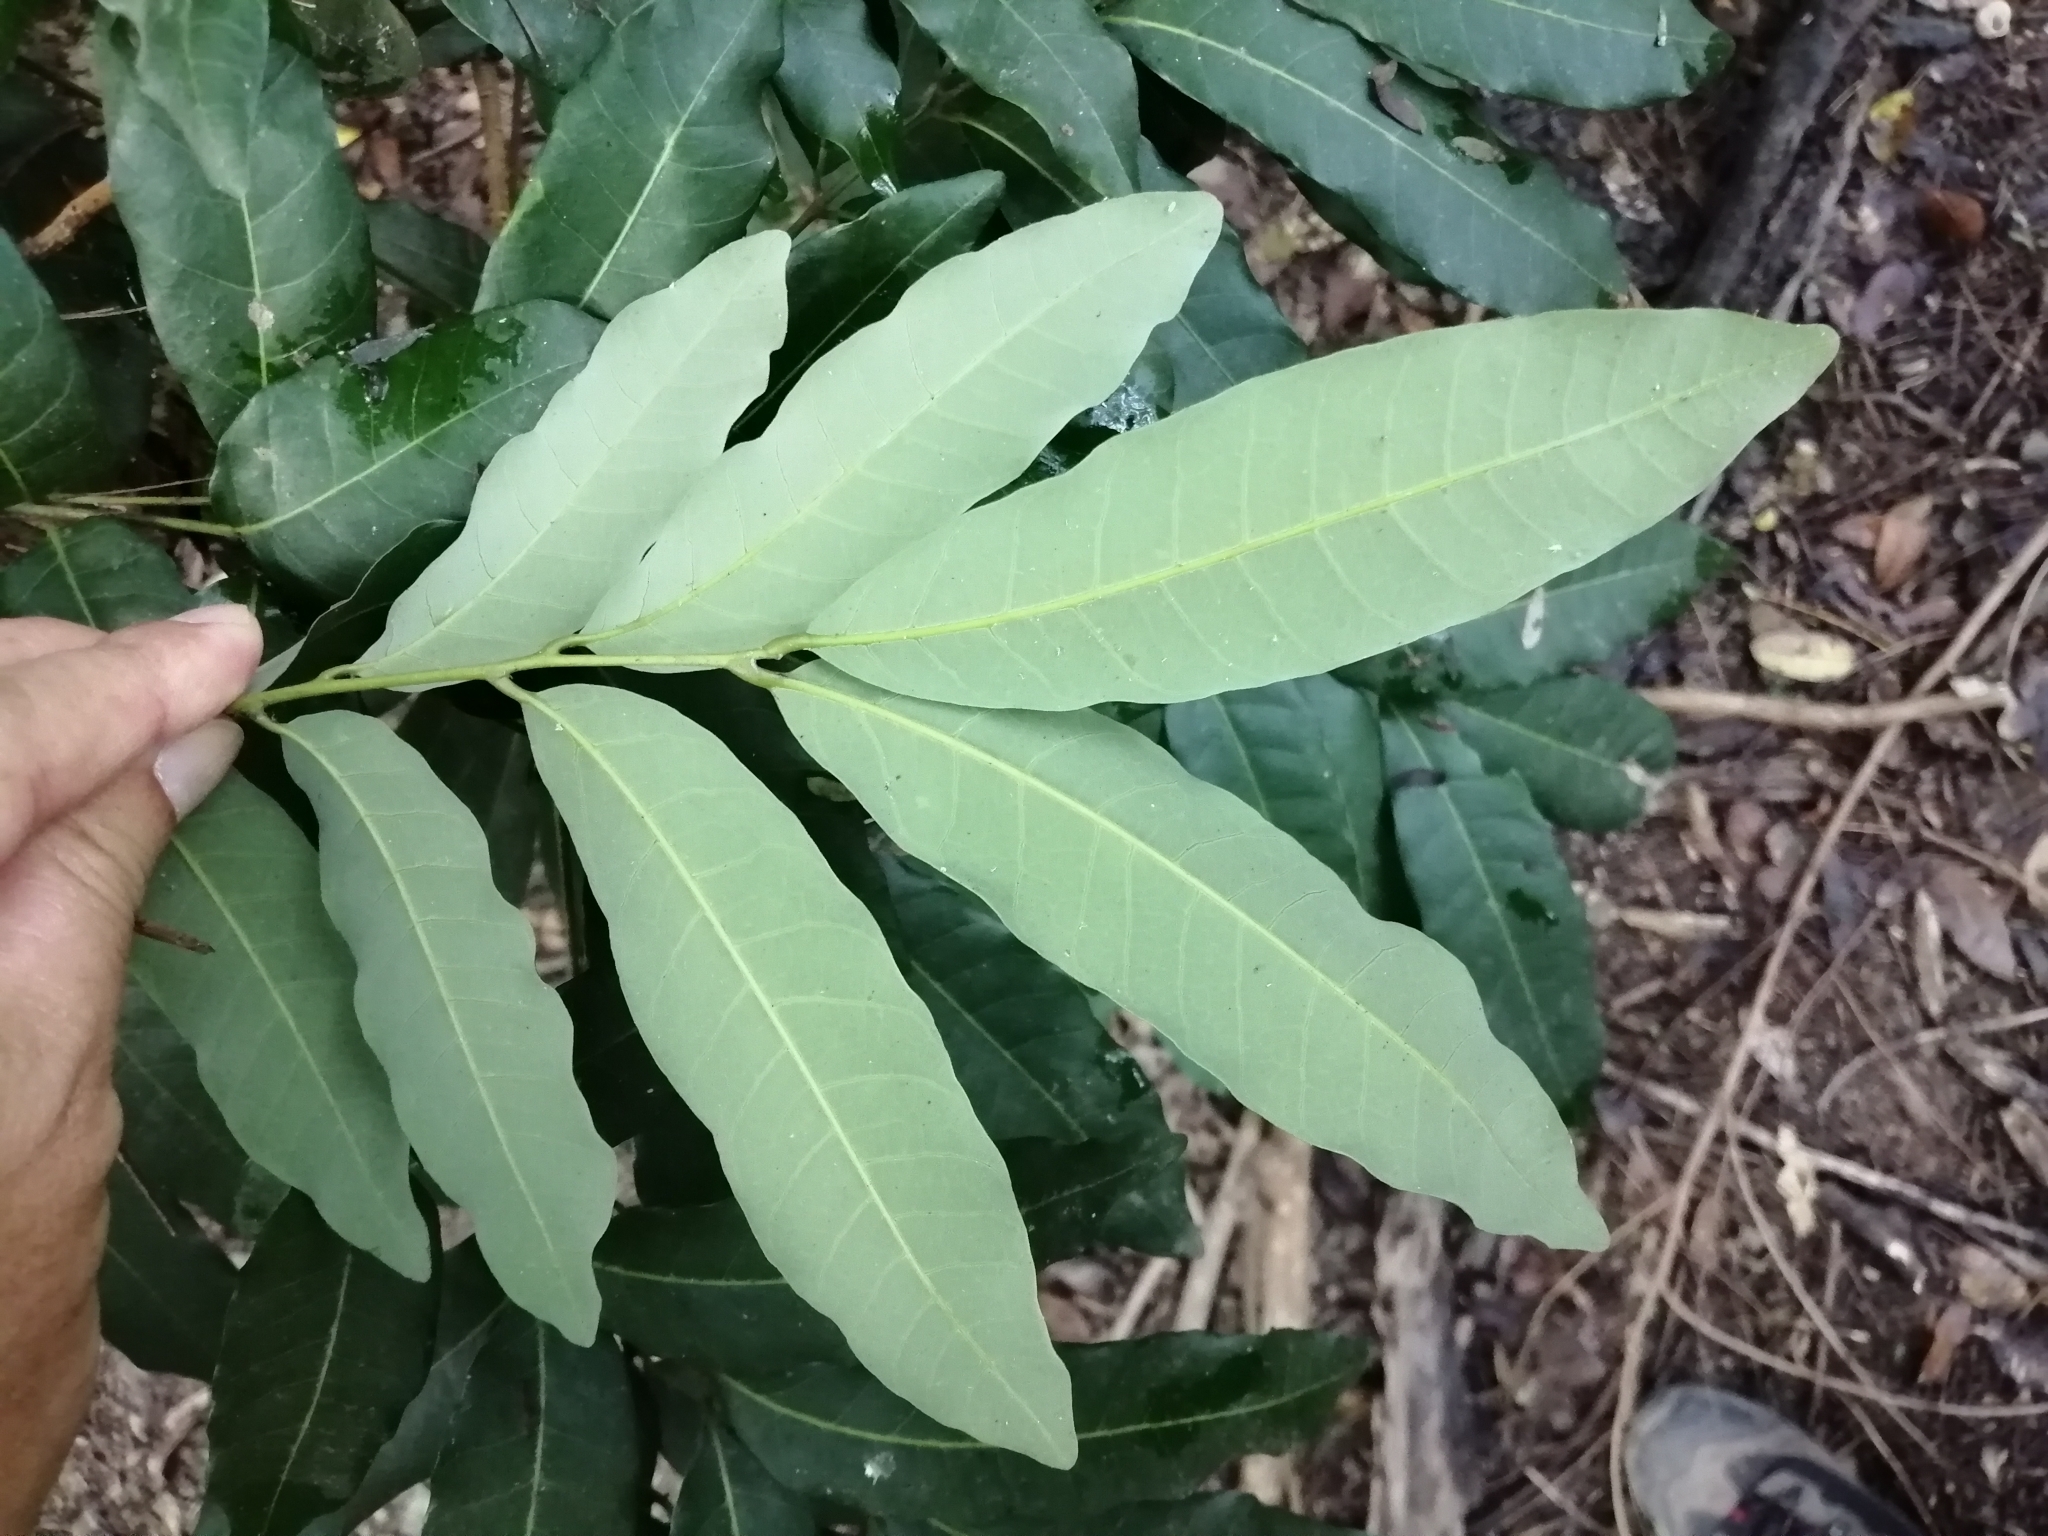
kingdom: Plantae
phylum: Tracheophyta
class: Magnoliopsida
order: Sapindales
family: Sapindaceae
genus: Dimocarpus
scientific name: Dimocarpus longan
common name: Longan
